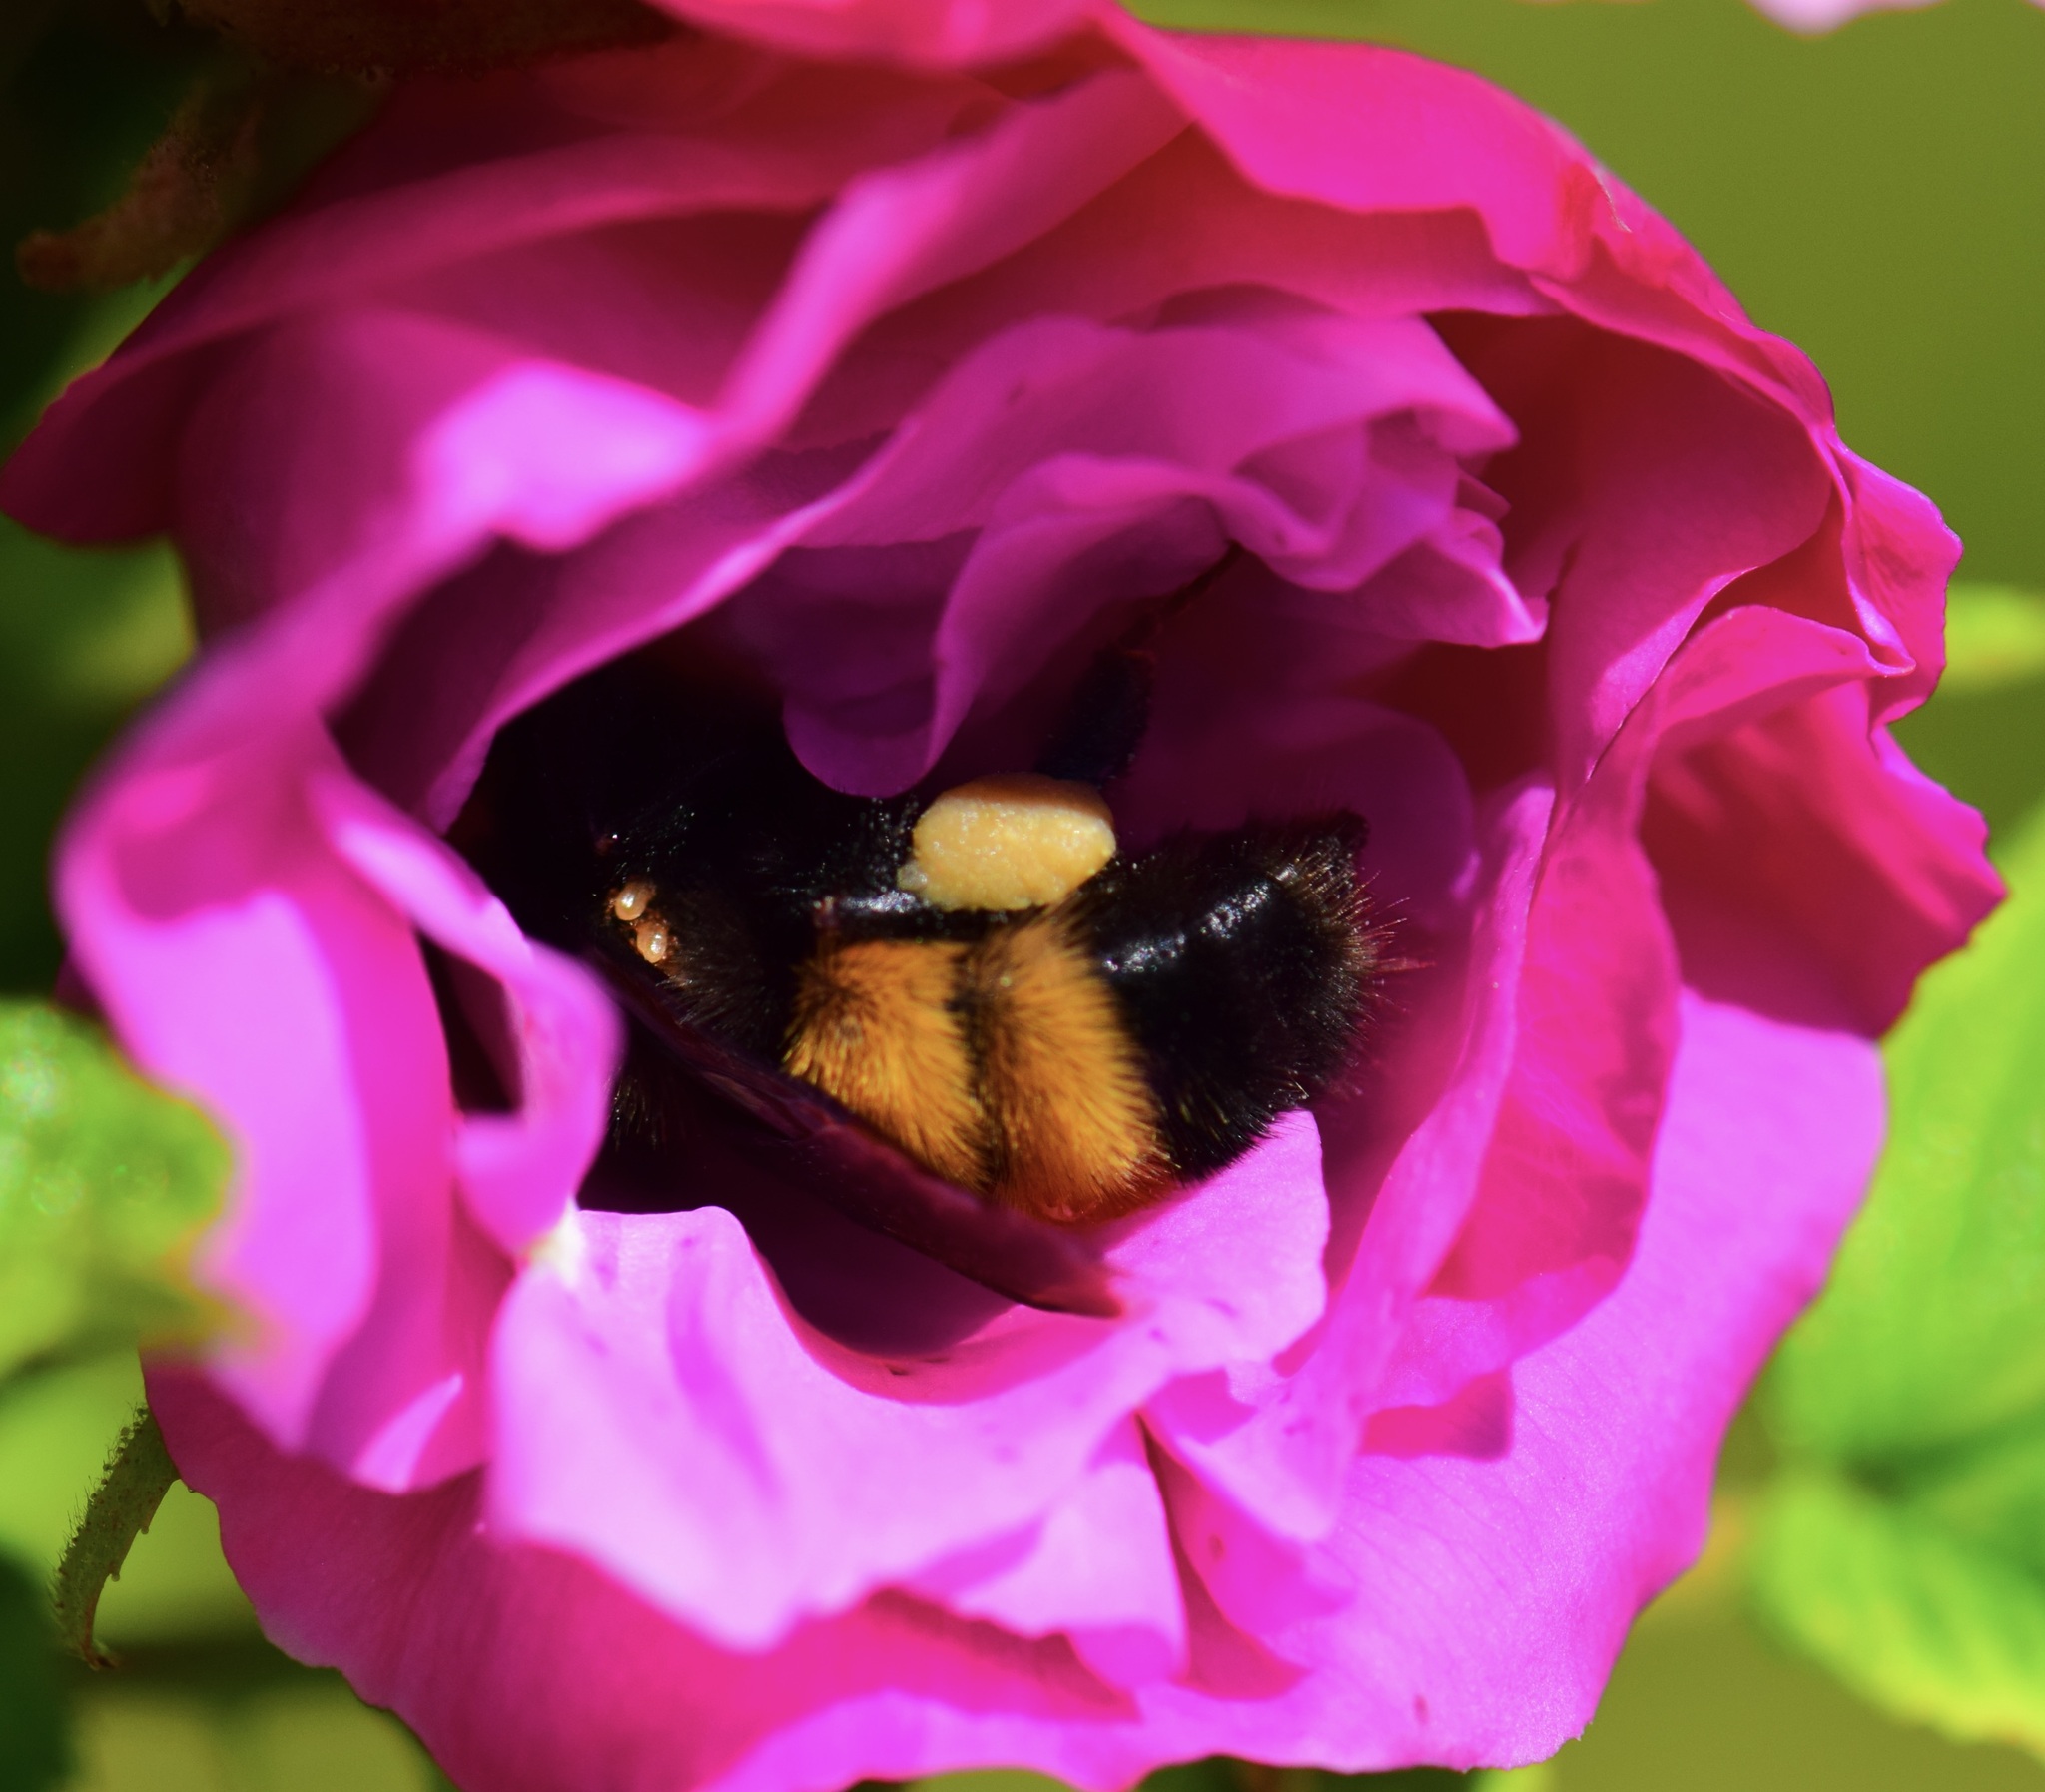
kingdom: Animalia
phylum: Arthropoda
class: Insecta
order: Hymenoptera
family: Apidae
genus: Bombus
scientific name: Bombus terricola
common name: Yellow-banded bumble bee
